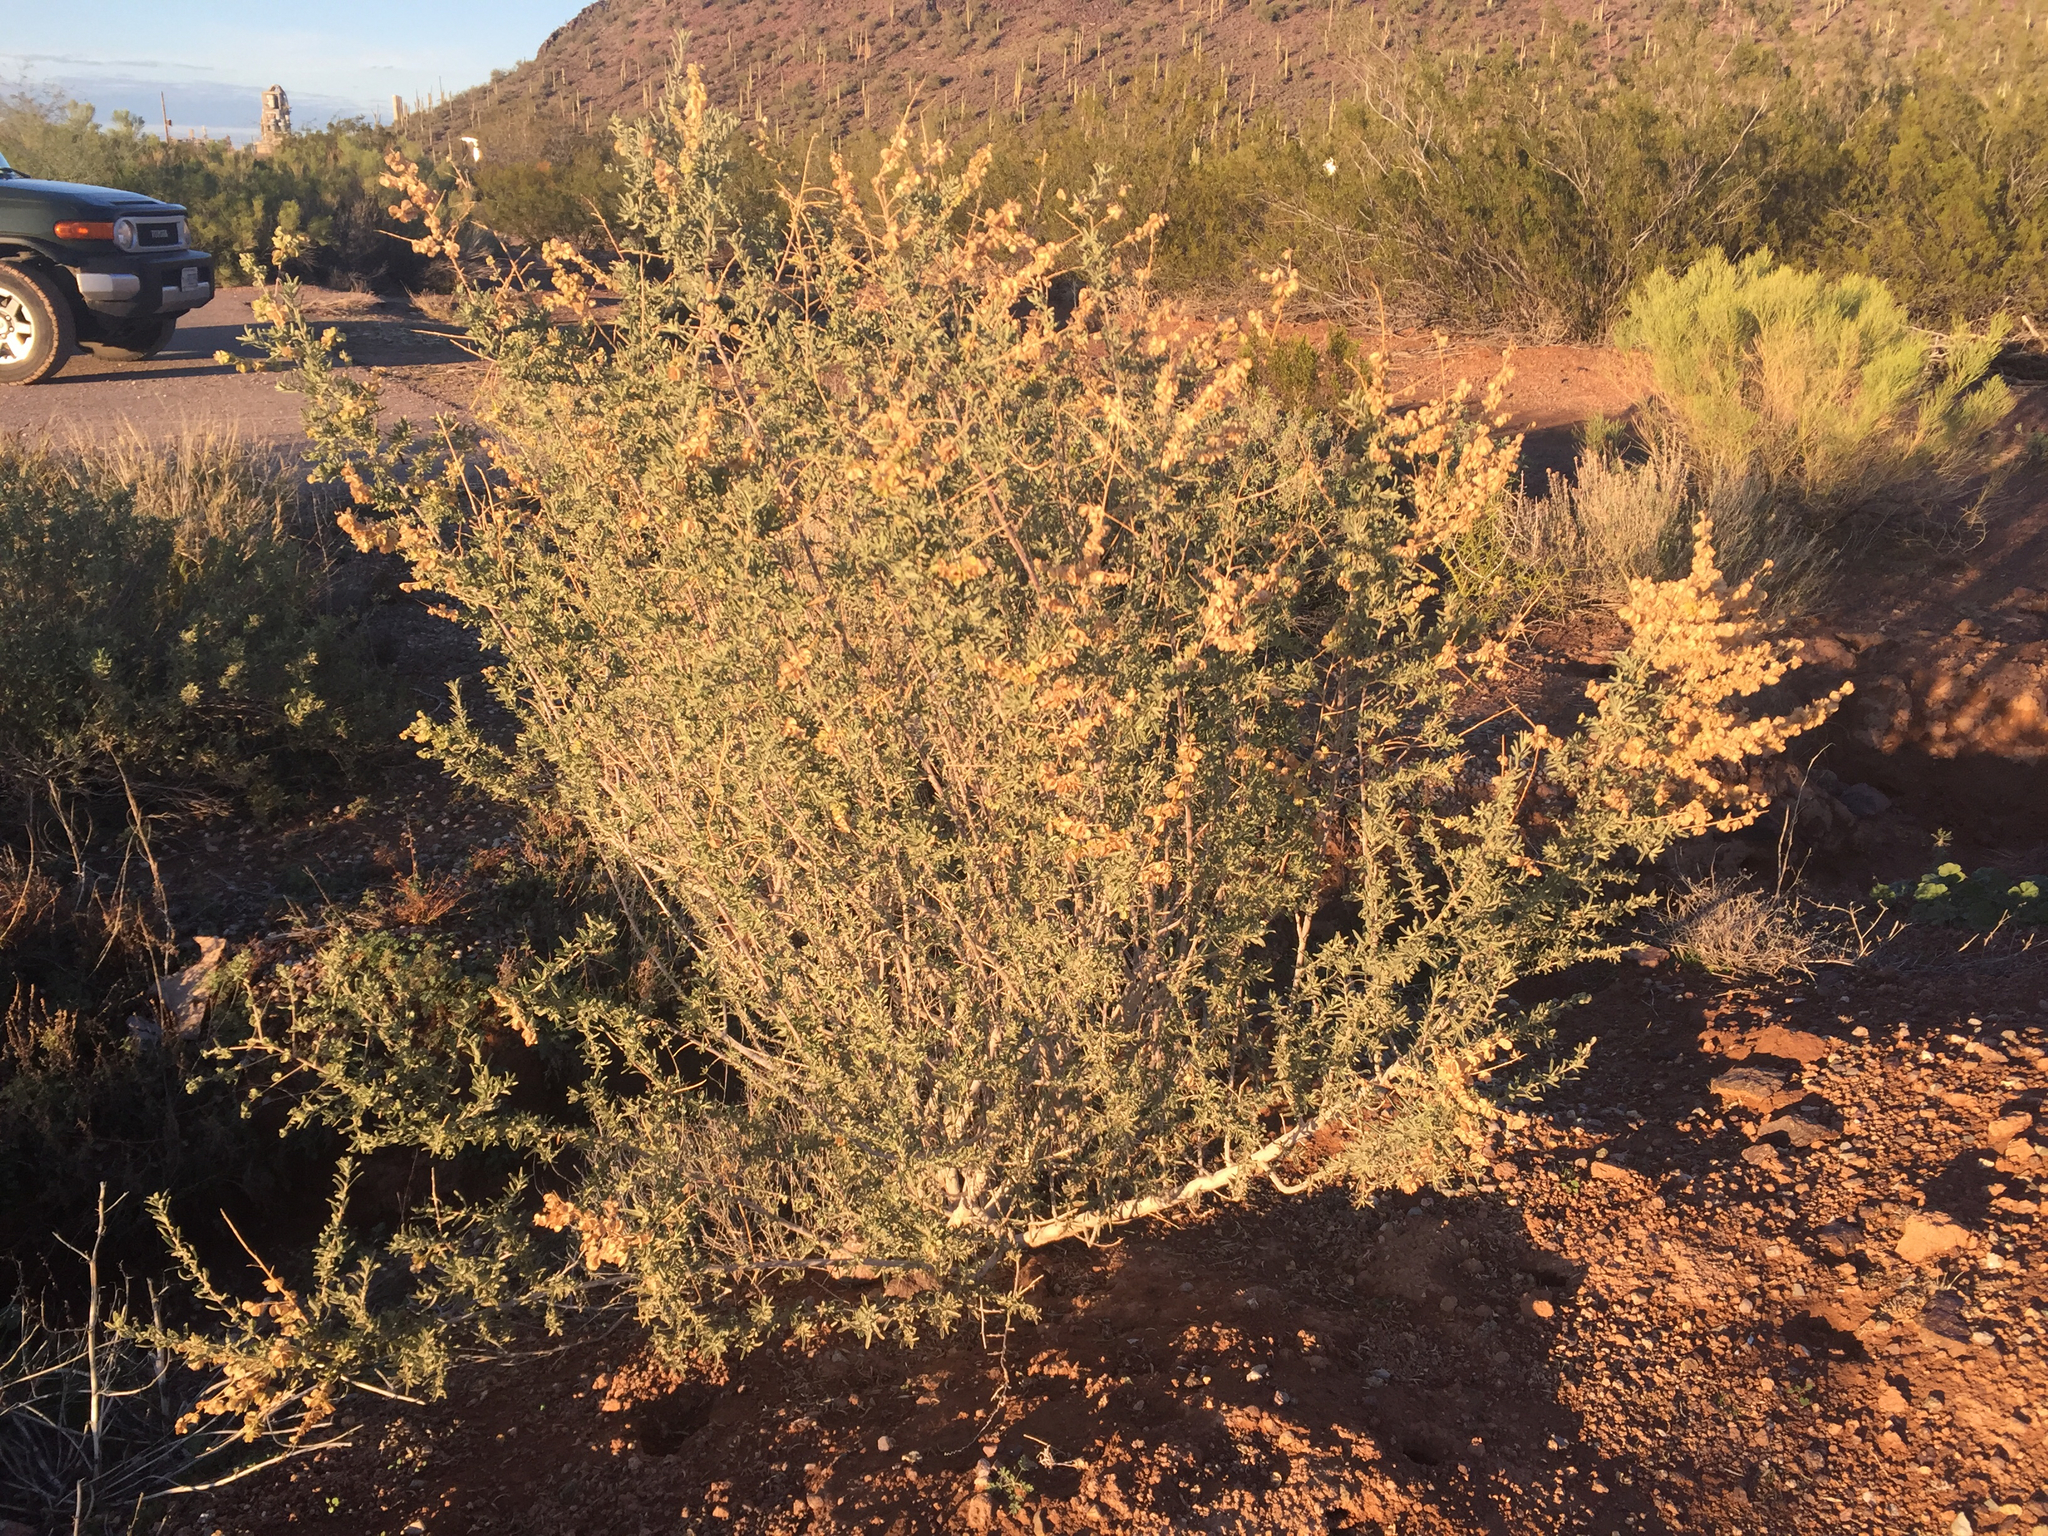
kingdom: Plantae
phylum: Tracheophyta
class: Magnoliopsida
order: Caryophyllales
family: Amaranthaceae
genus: Atriplex
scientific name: Atriplex canescens
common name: Four-wing saltbush
